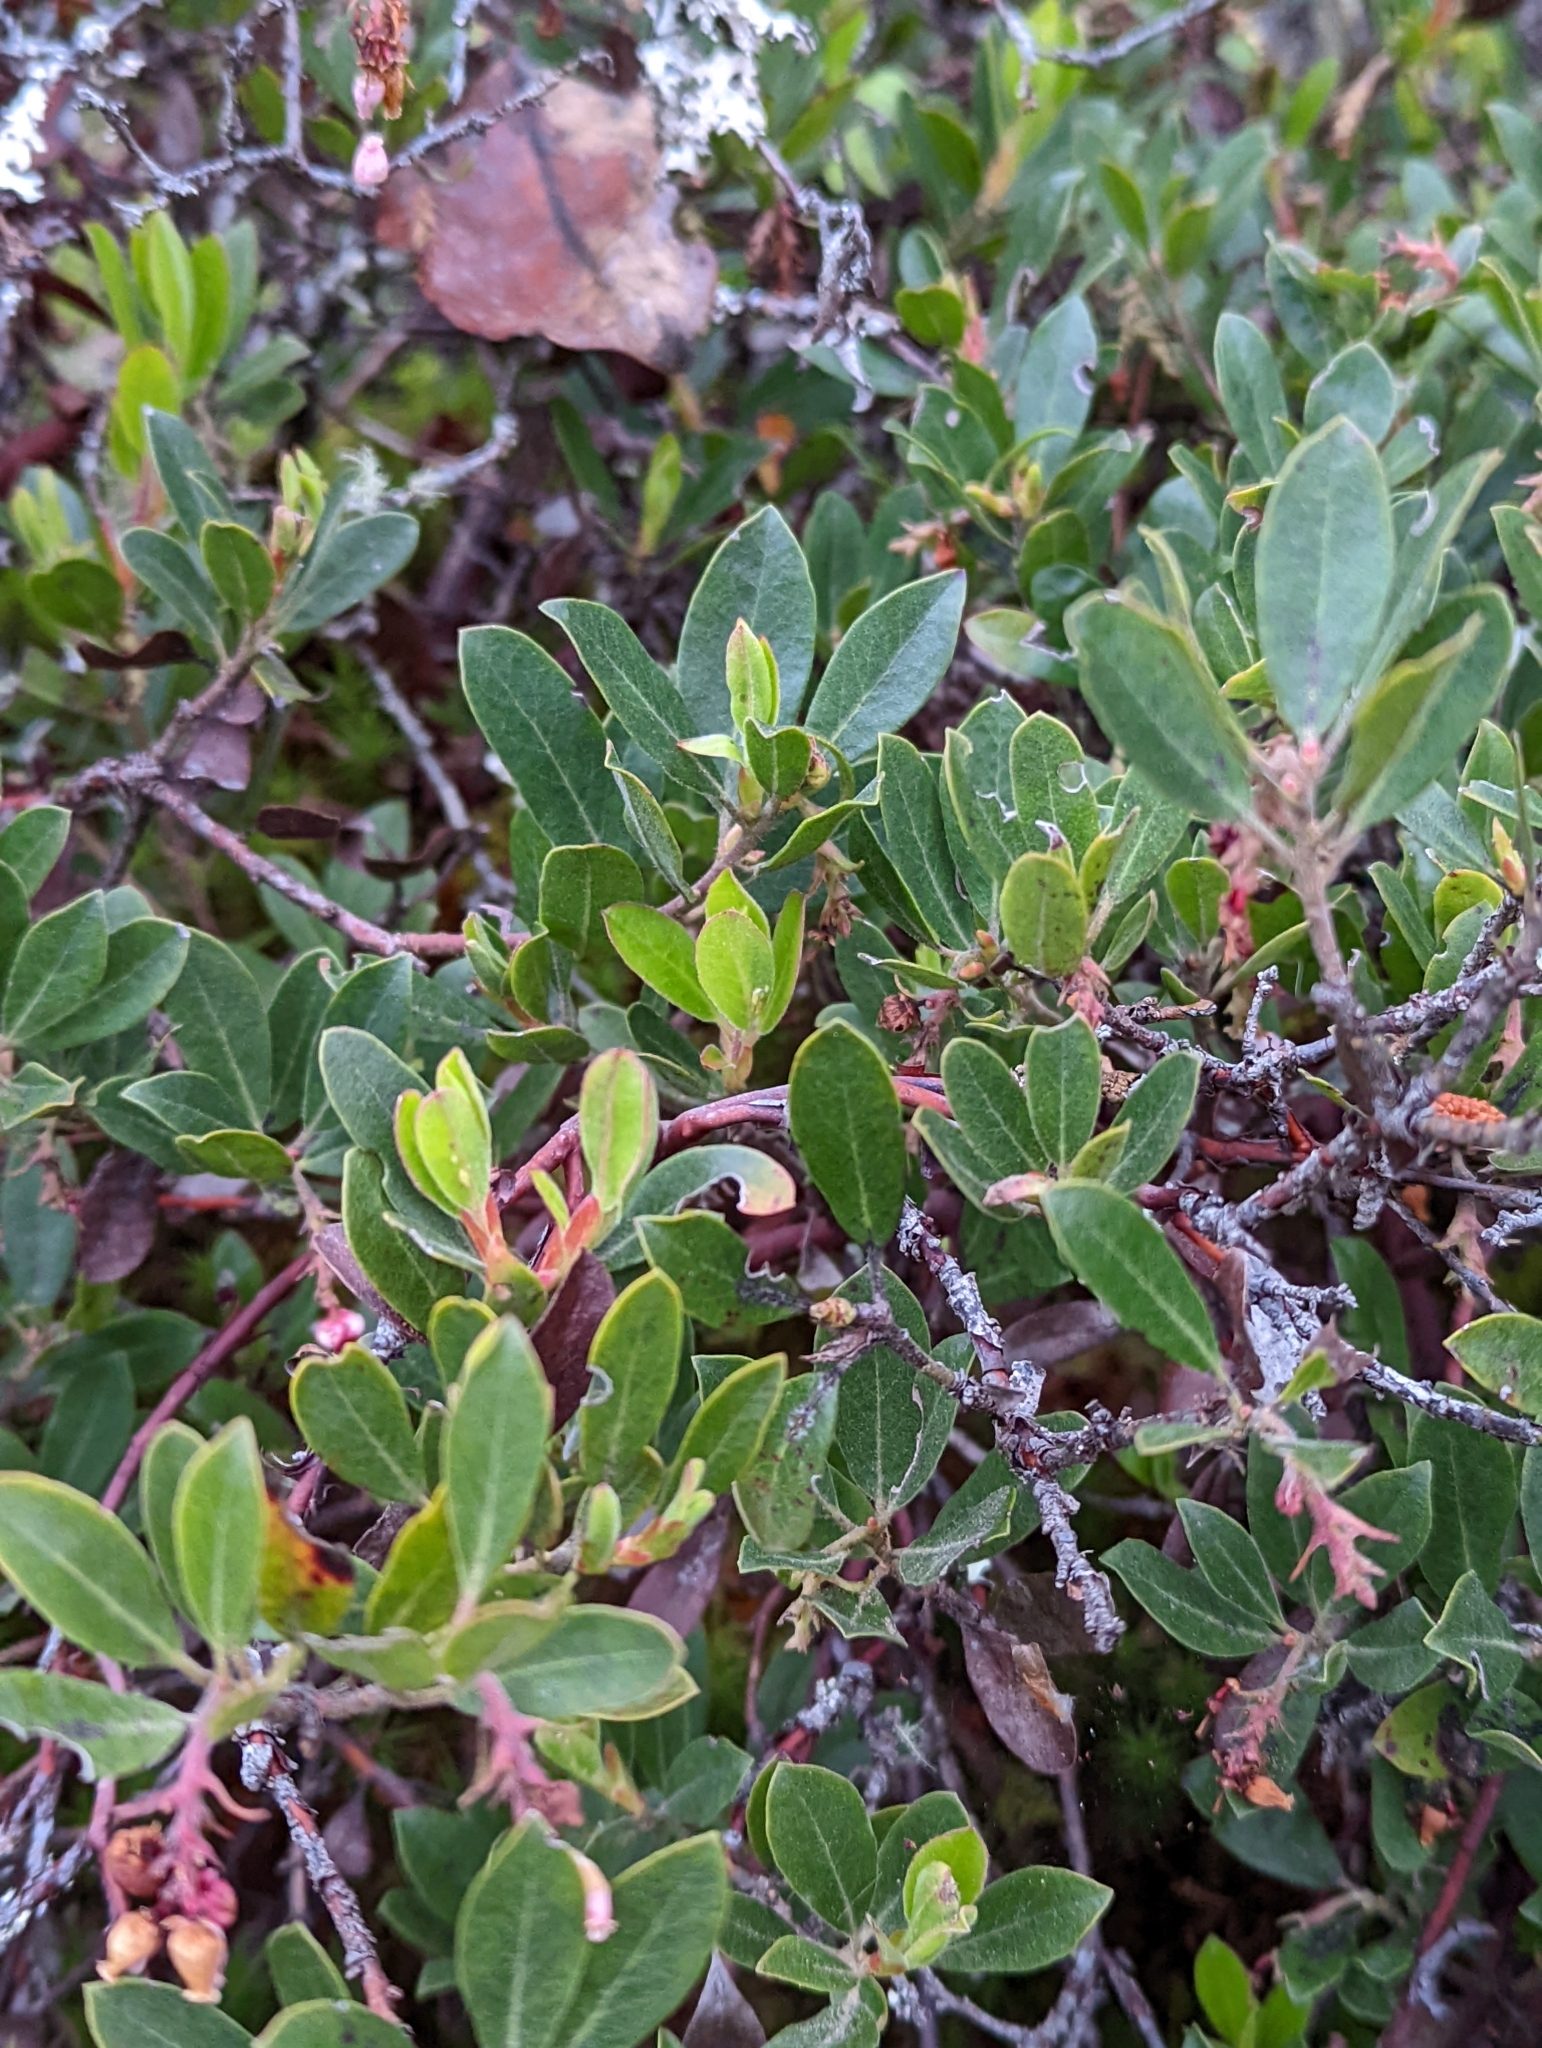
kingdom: Plantae
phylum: Tracheophyta
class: Magnoliopsida
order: Ericales
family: Ericaceae
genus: Arctostaphylos
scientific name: Arctostaphylos media
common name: Hybrid manzanita
